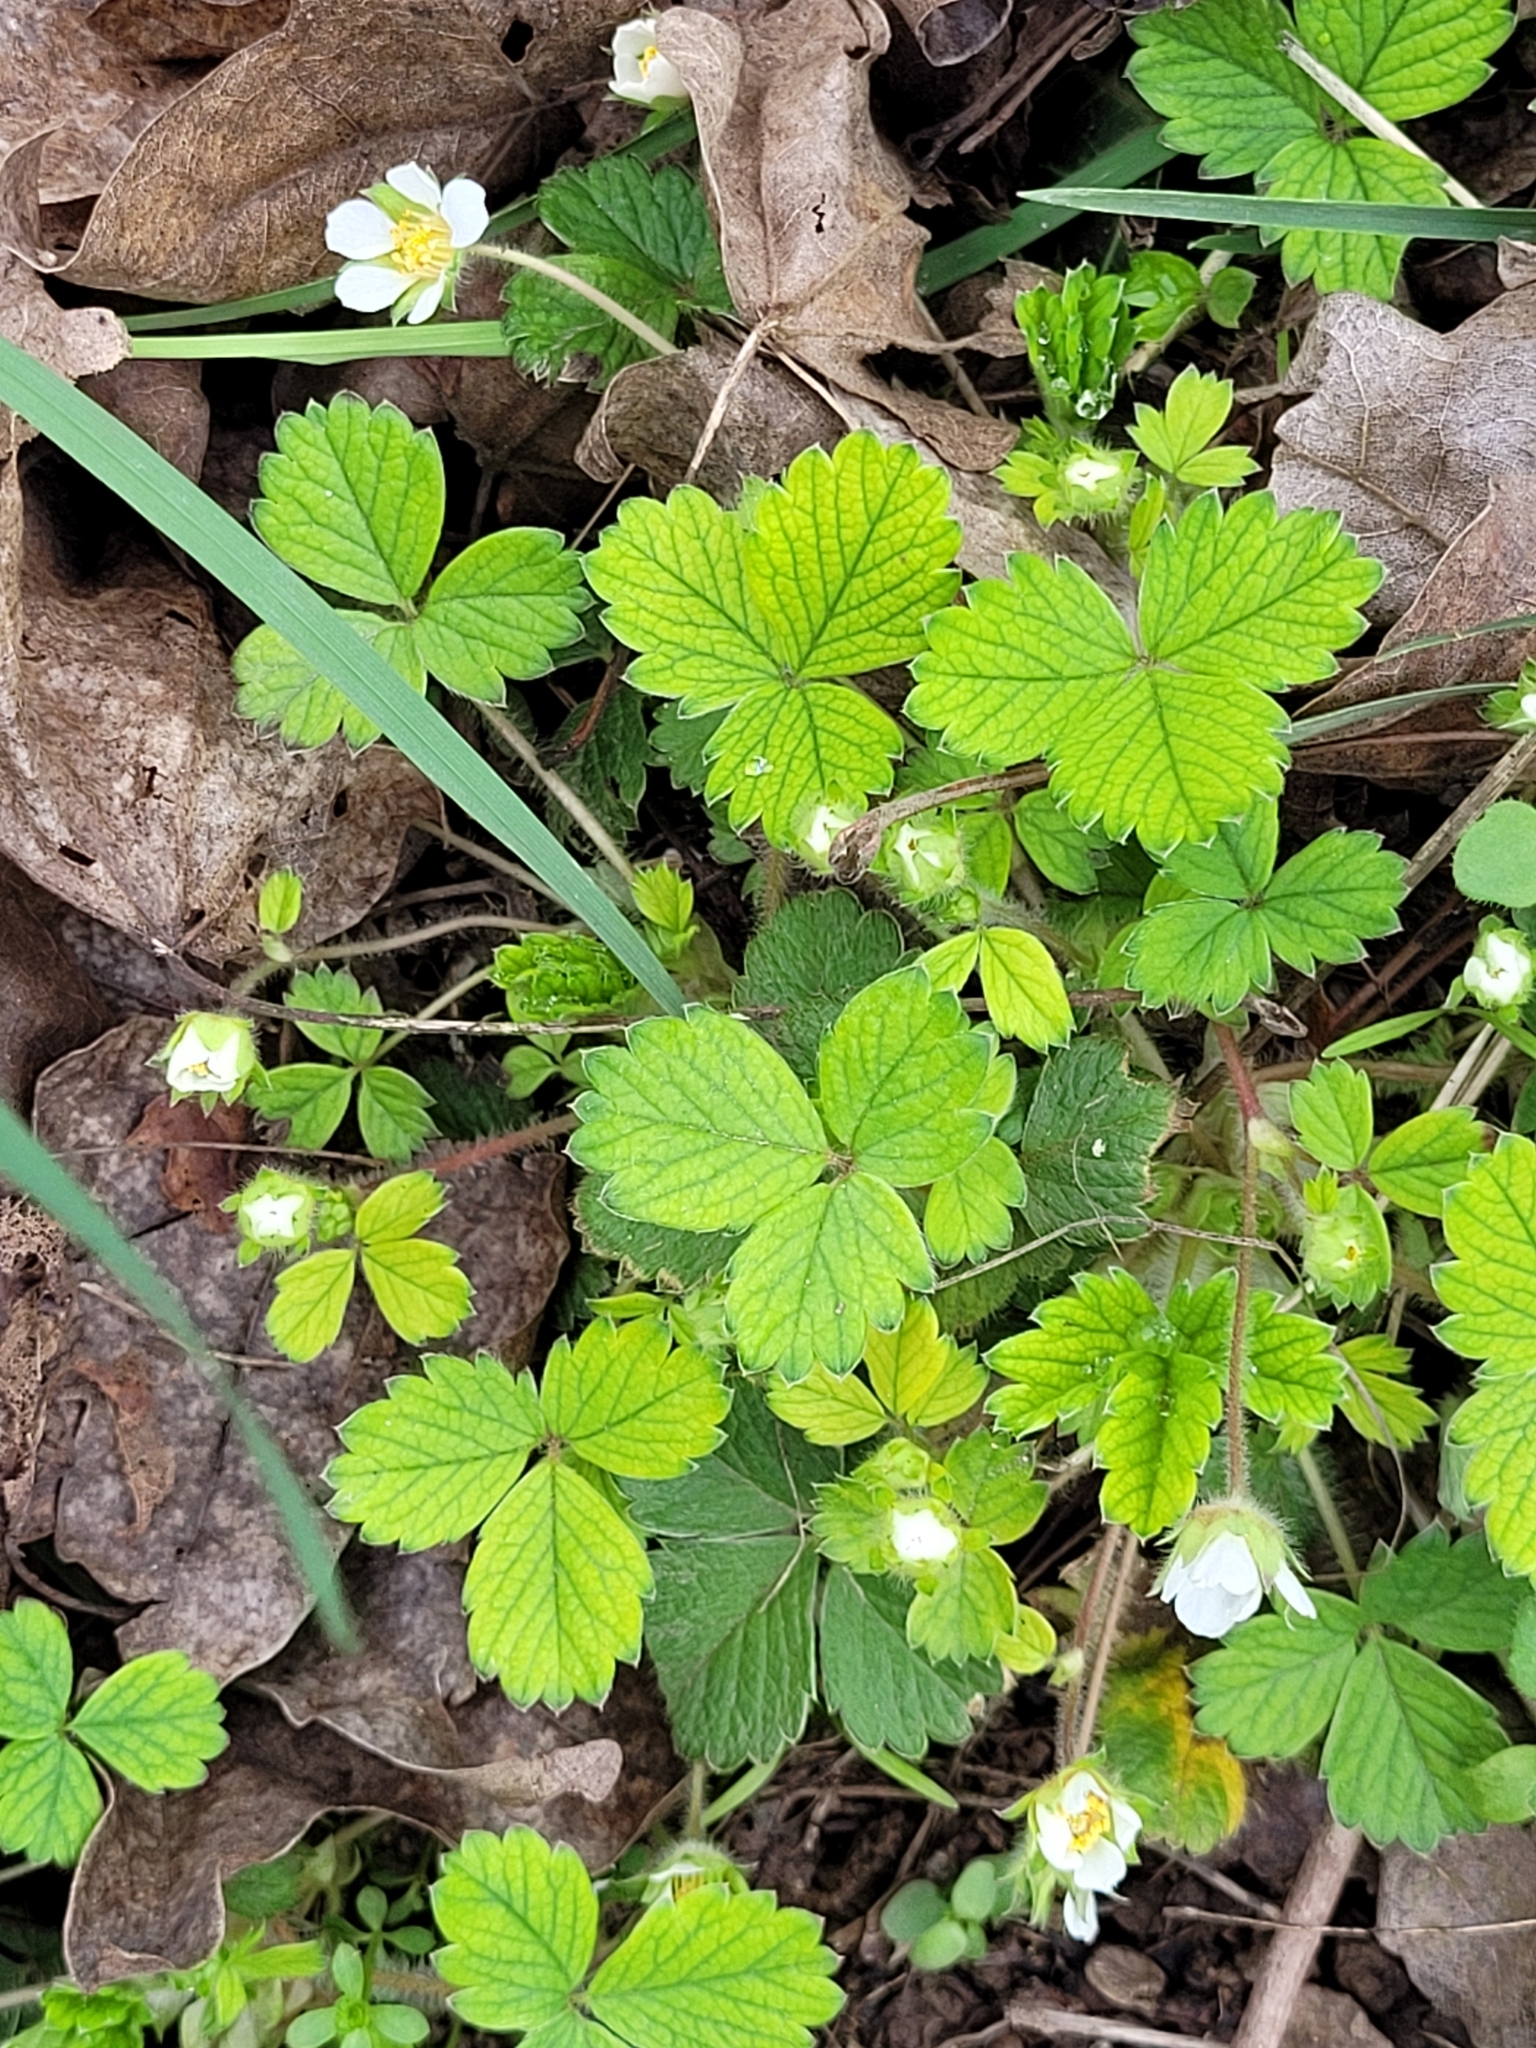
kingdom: Plantae
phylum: Tracheophyta
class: Magnoliopsida
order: Rosales
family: Rosaceae
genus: Potentilla
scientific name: Potentilla sterilis
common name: Barren strawberry
